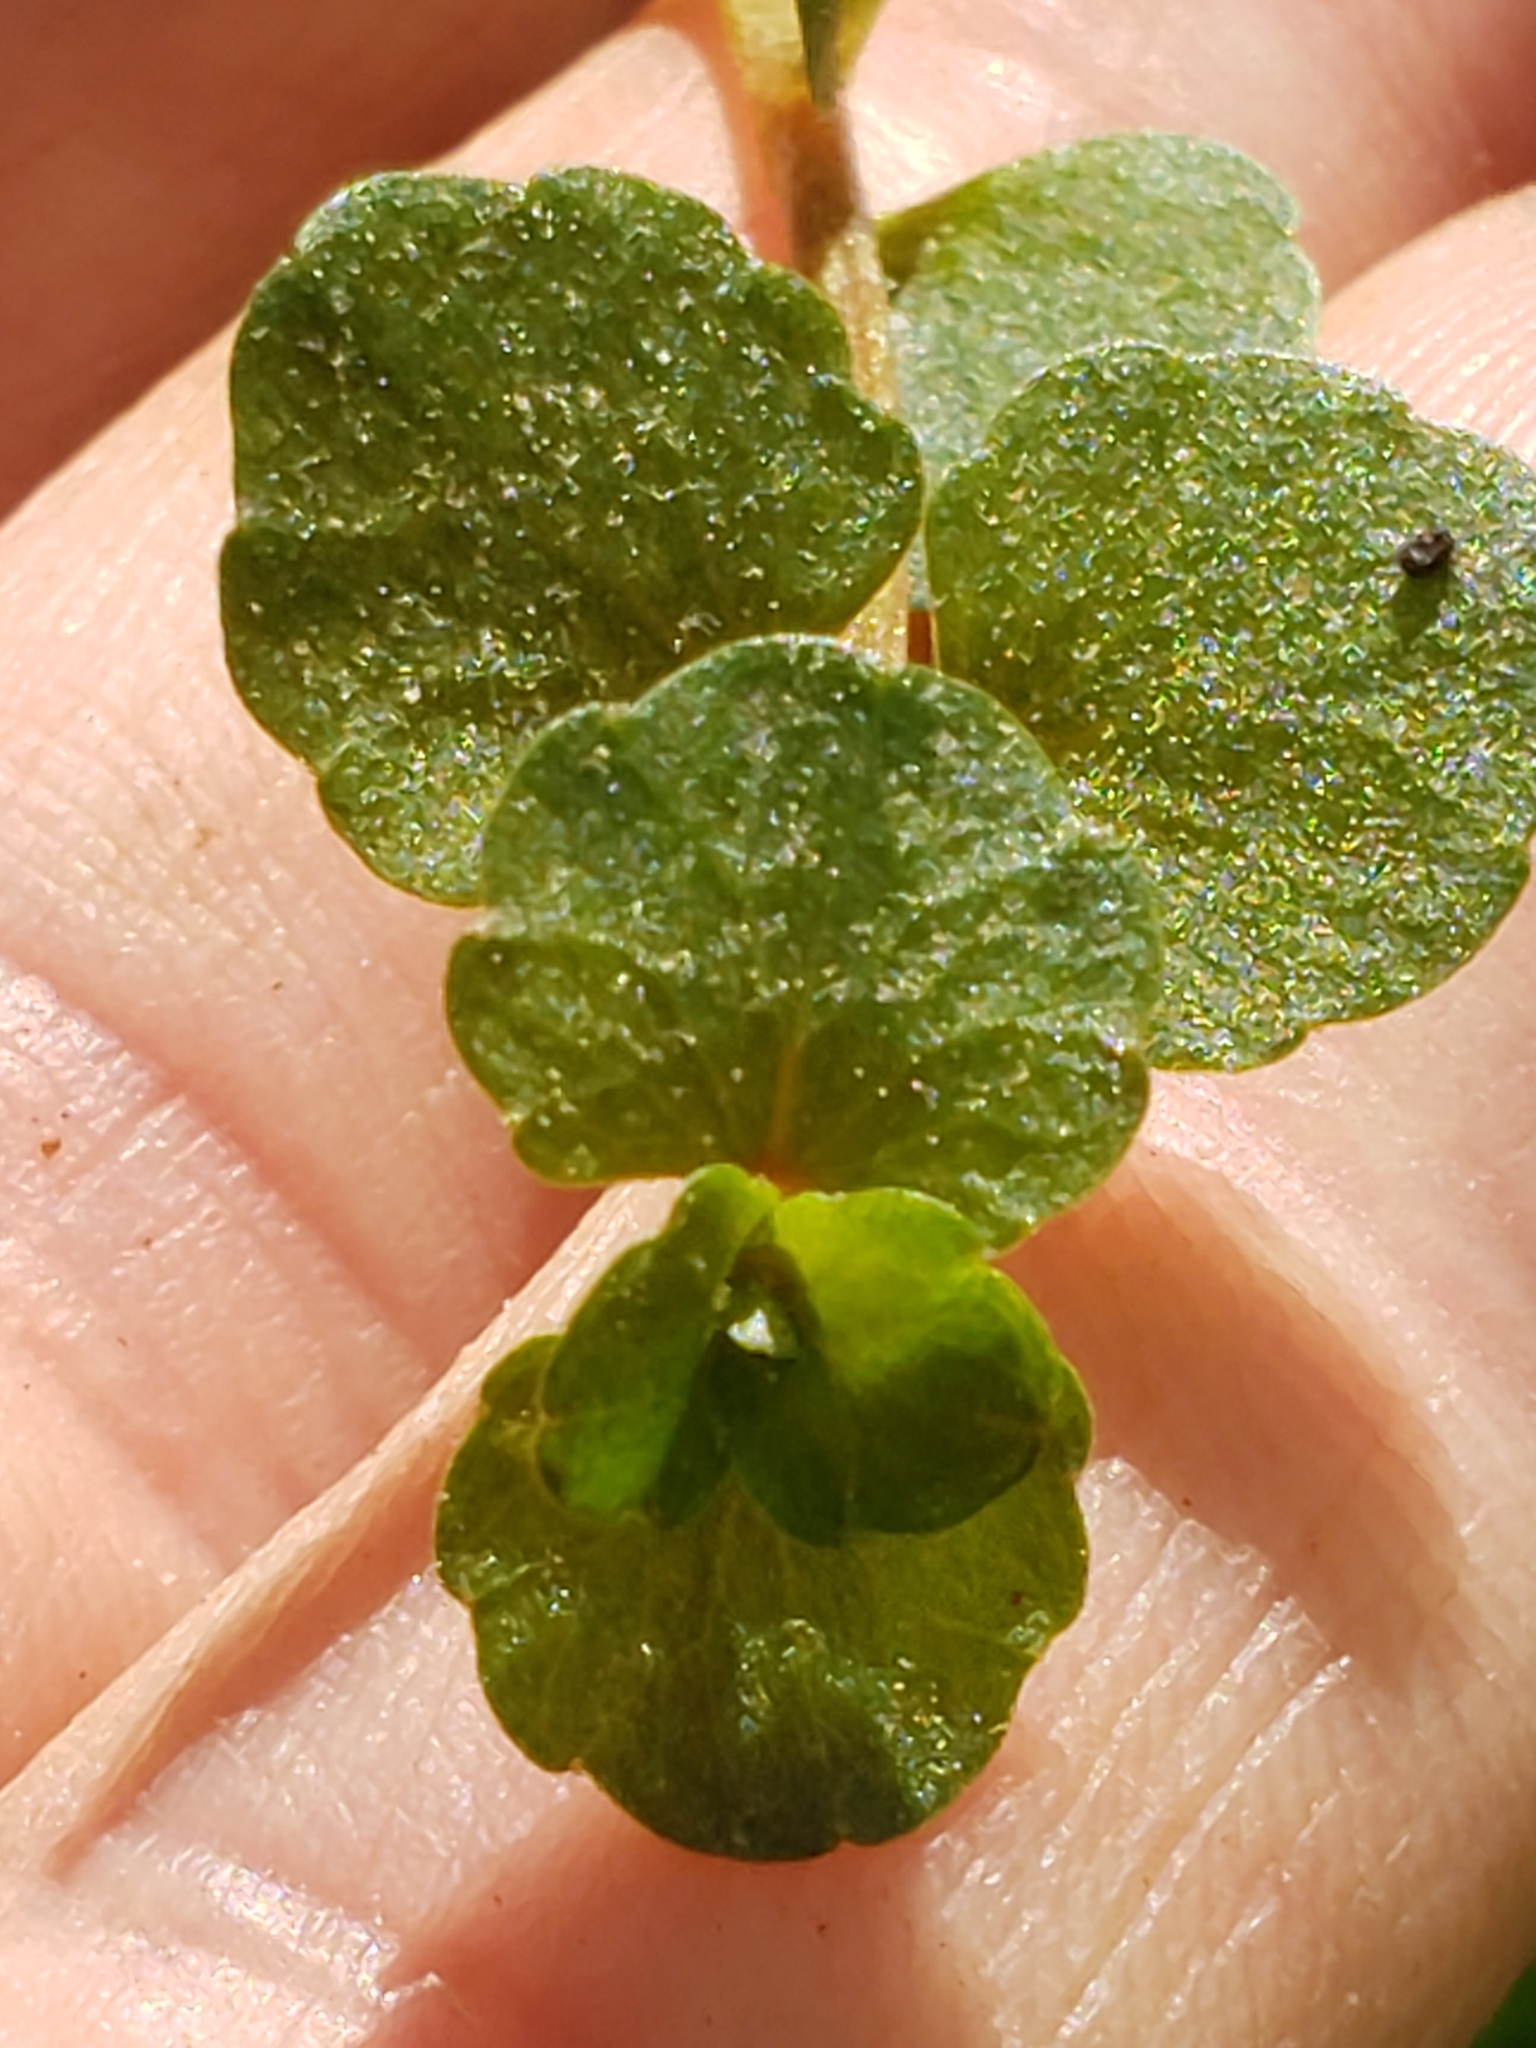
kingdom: Plantae
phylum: Tracheophyta
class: Magnoliopsida
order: Saxifragales
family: Saxifragaceae
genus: Chrysosplenium
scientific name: Chrysosplenium americanum
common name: American golden-saxifrage
